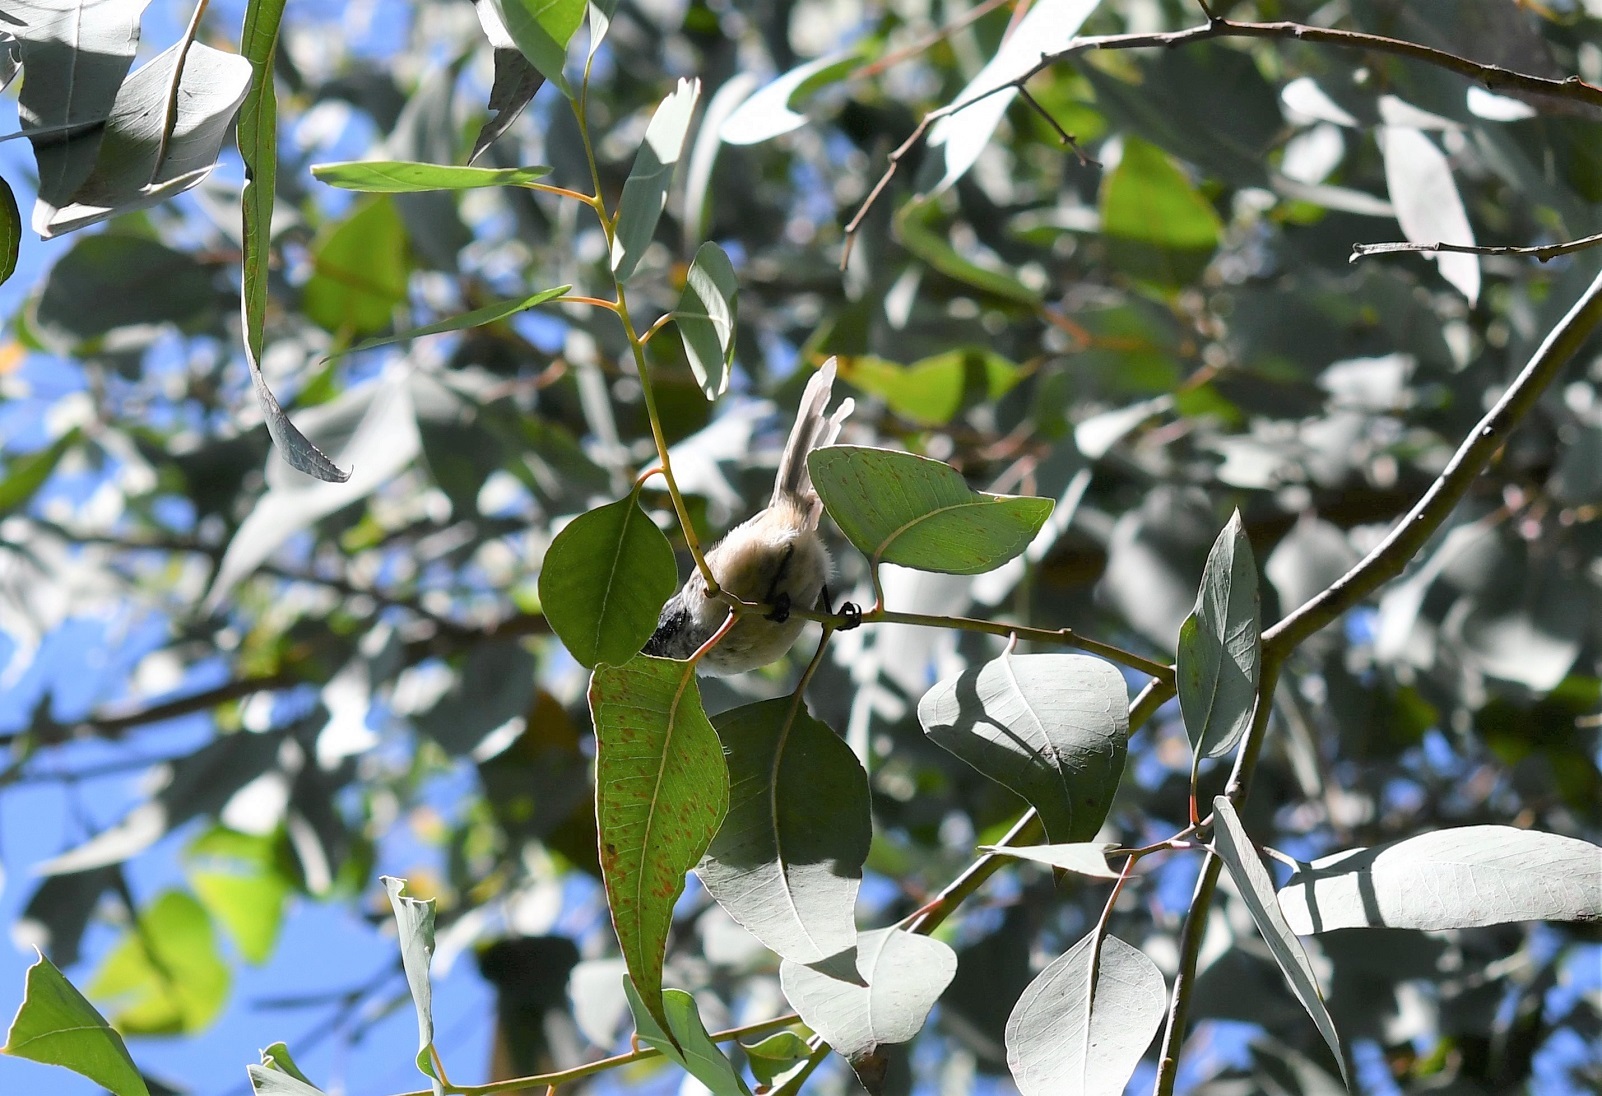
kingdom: Animalia
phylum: Chordata
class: Aves
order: Passeriformes
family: Aegithalidae
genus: Psaltriparus
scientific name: Psaltriparus minimus
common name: American bushtit
